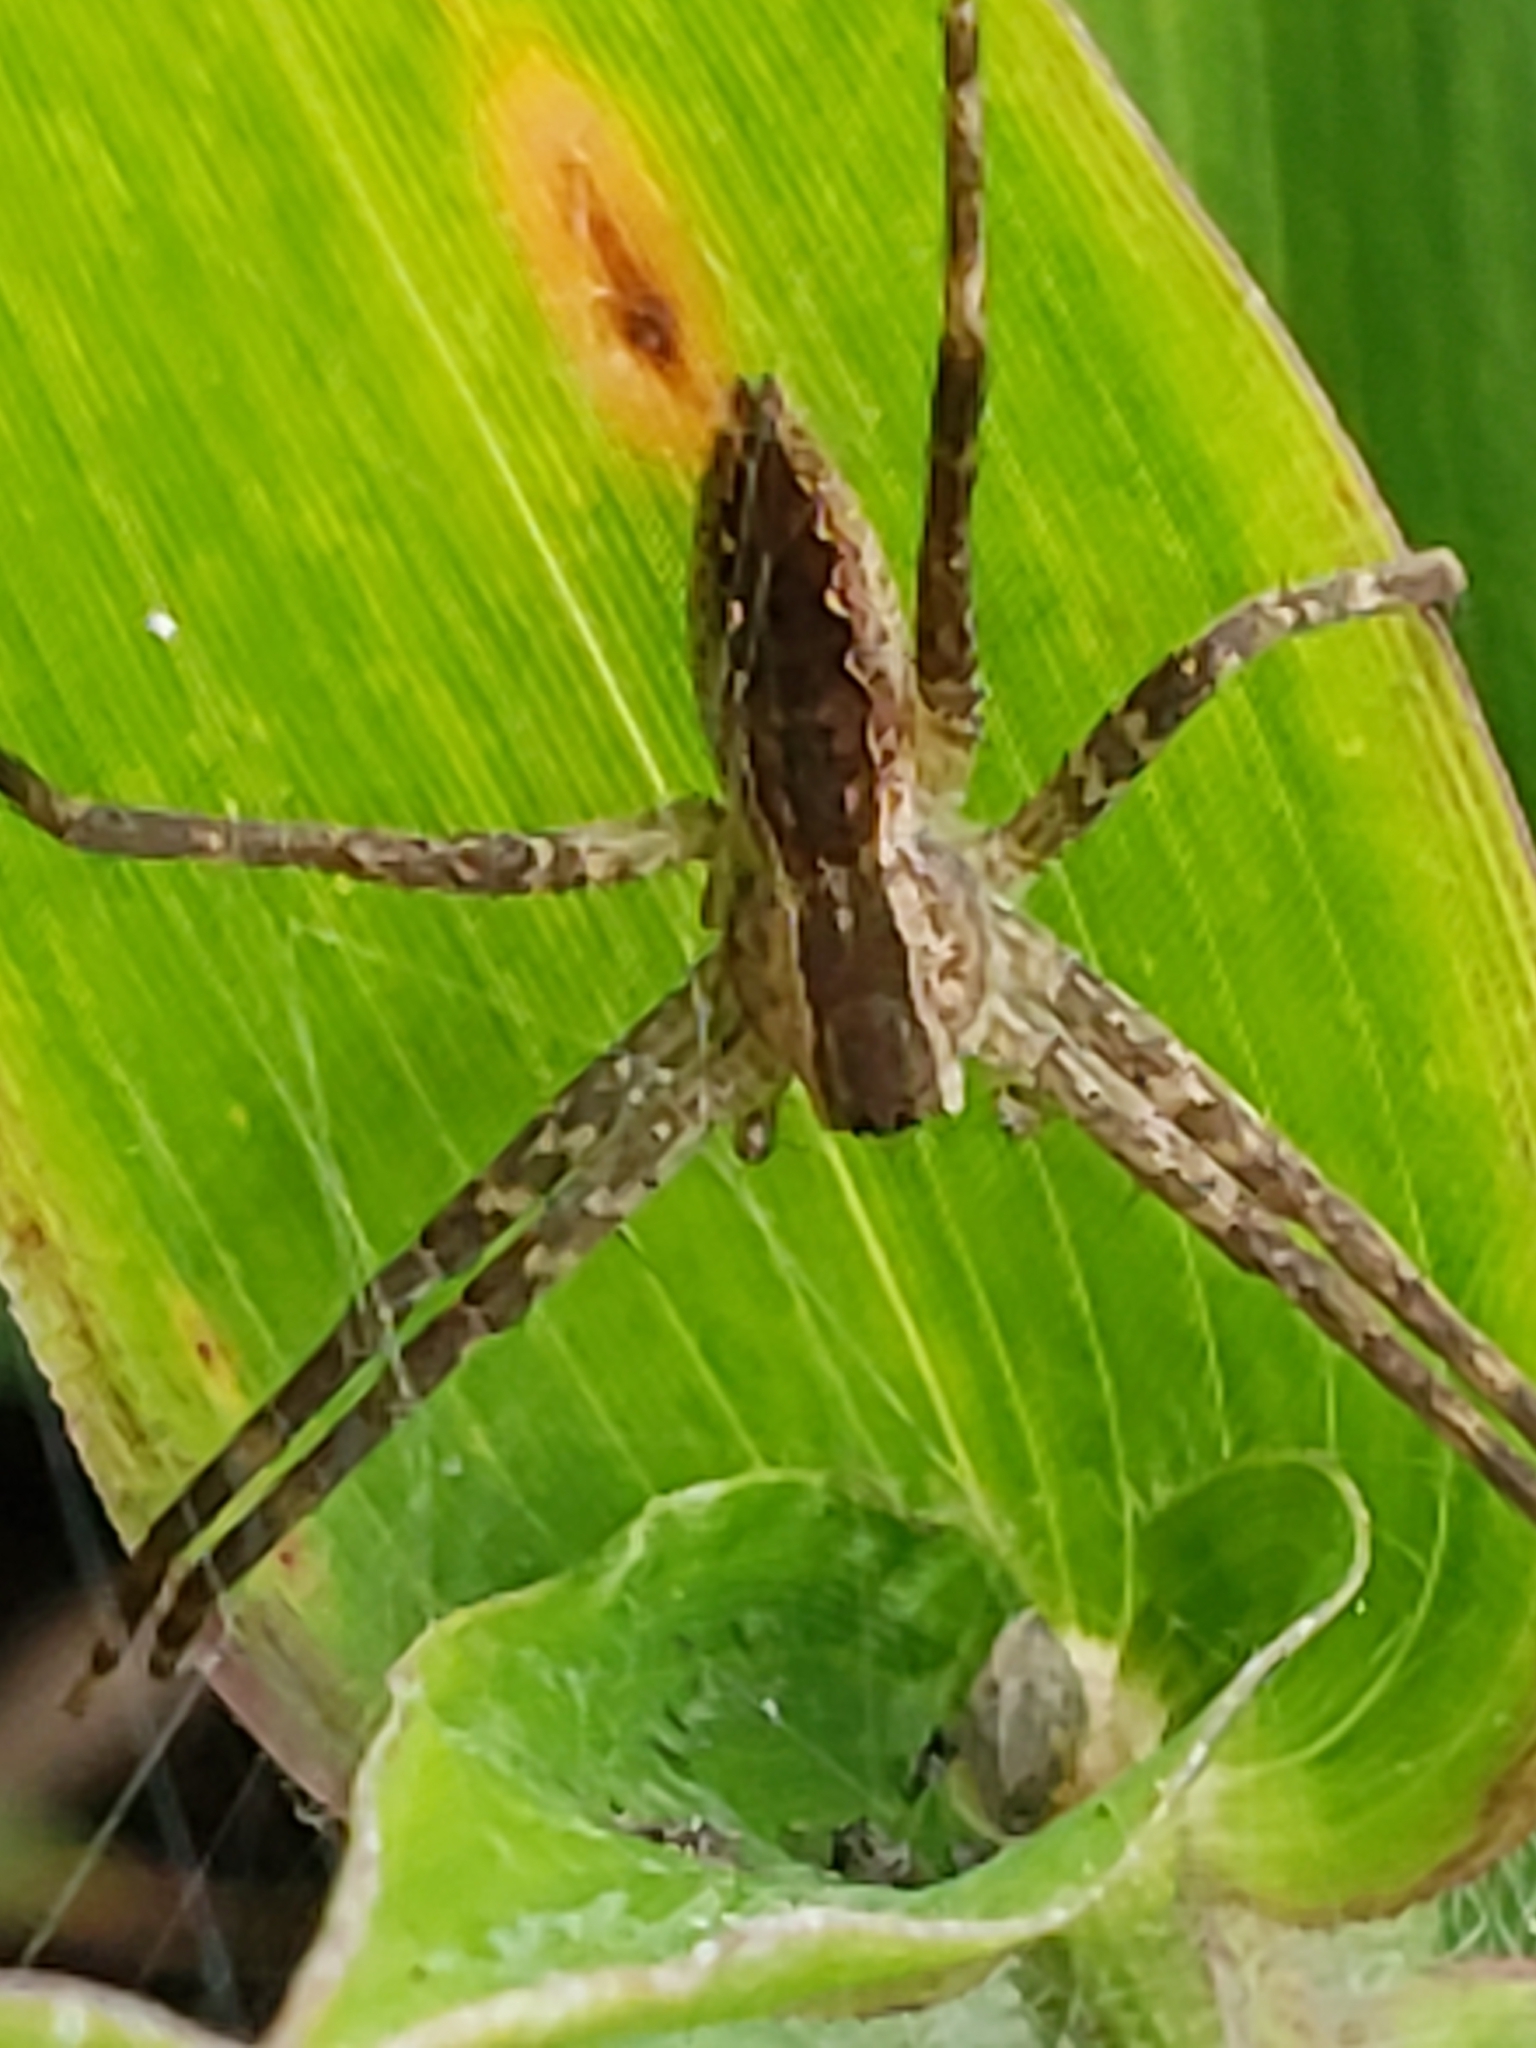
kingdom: Animalia
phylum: Arthropoda
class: Arachnida
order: Araneae
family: Pisauridae
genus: Pisaurina
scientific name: Pisaurina mira
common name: American nursery web spider
